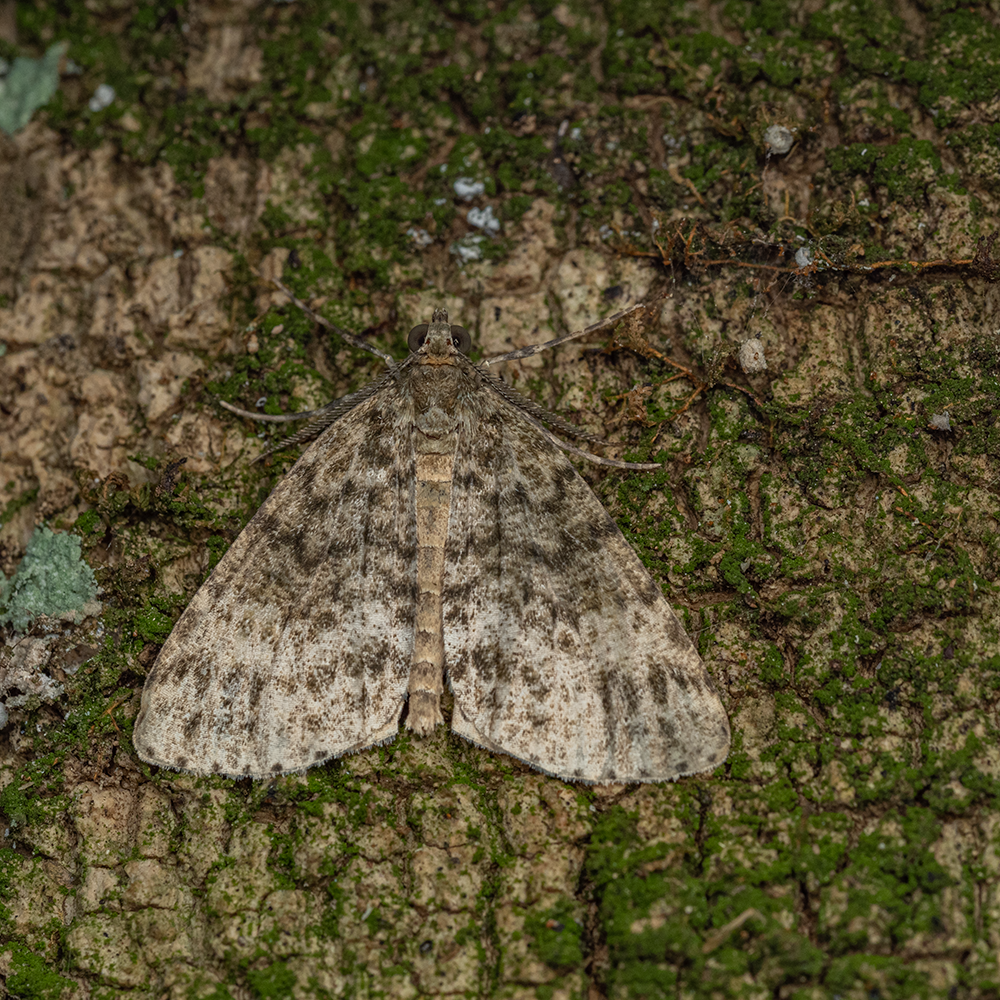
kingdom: Animalia
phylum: Arthropoda
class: Insecta
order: Lepidoptera
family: Geometridae
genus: Pseudocoremia
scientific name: Pseudocoremia indistincta
